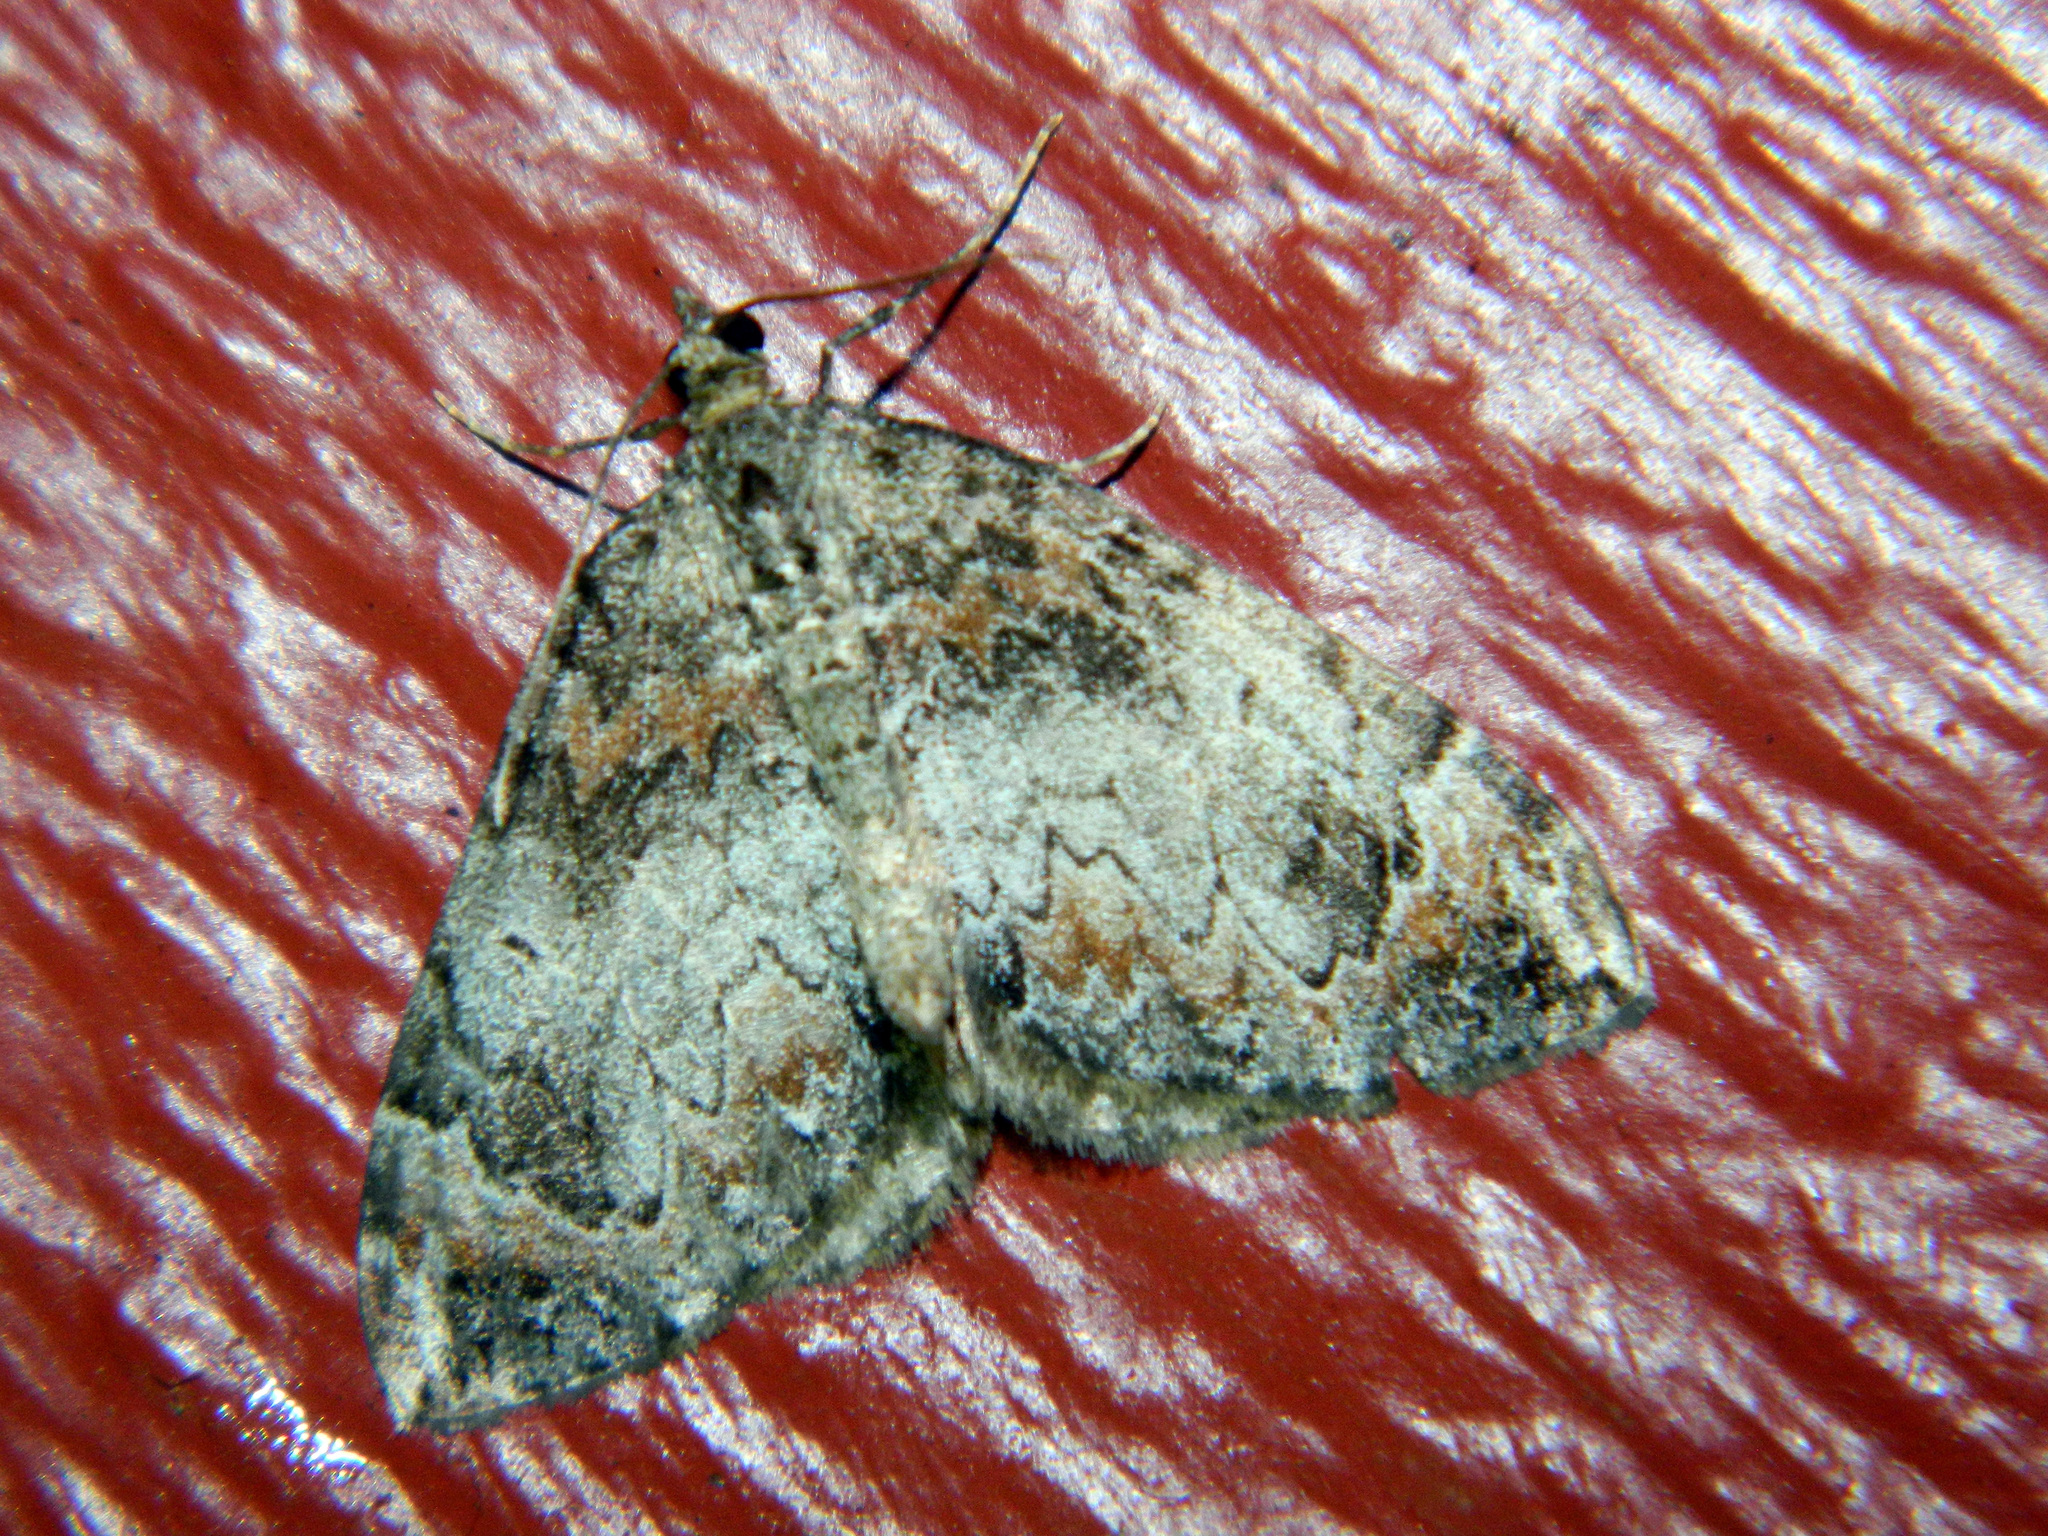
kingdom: Animalia
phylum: Arthropoda
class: Insecta
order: Lepidoptera
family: Geometridae
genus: Dysstroma
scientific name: Dysstroma citrata
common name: Dark marbled carpet
